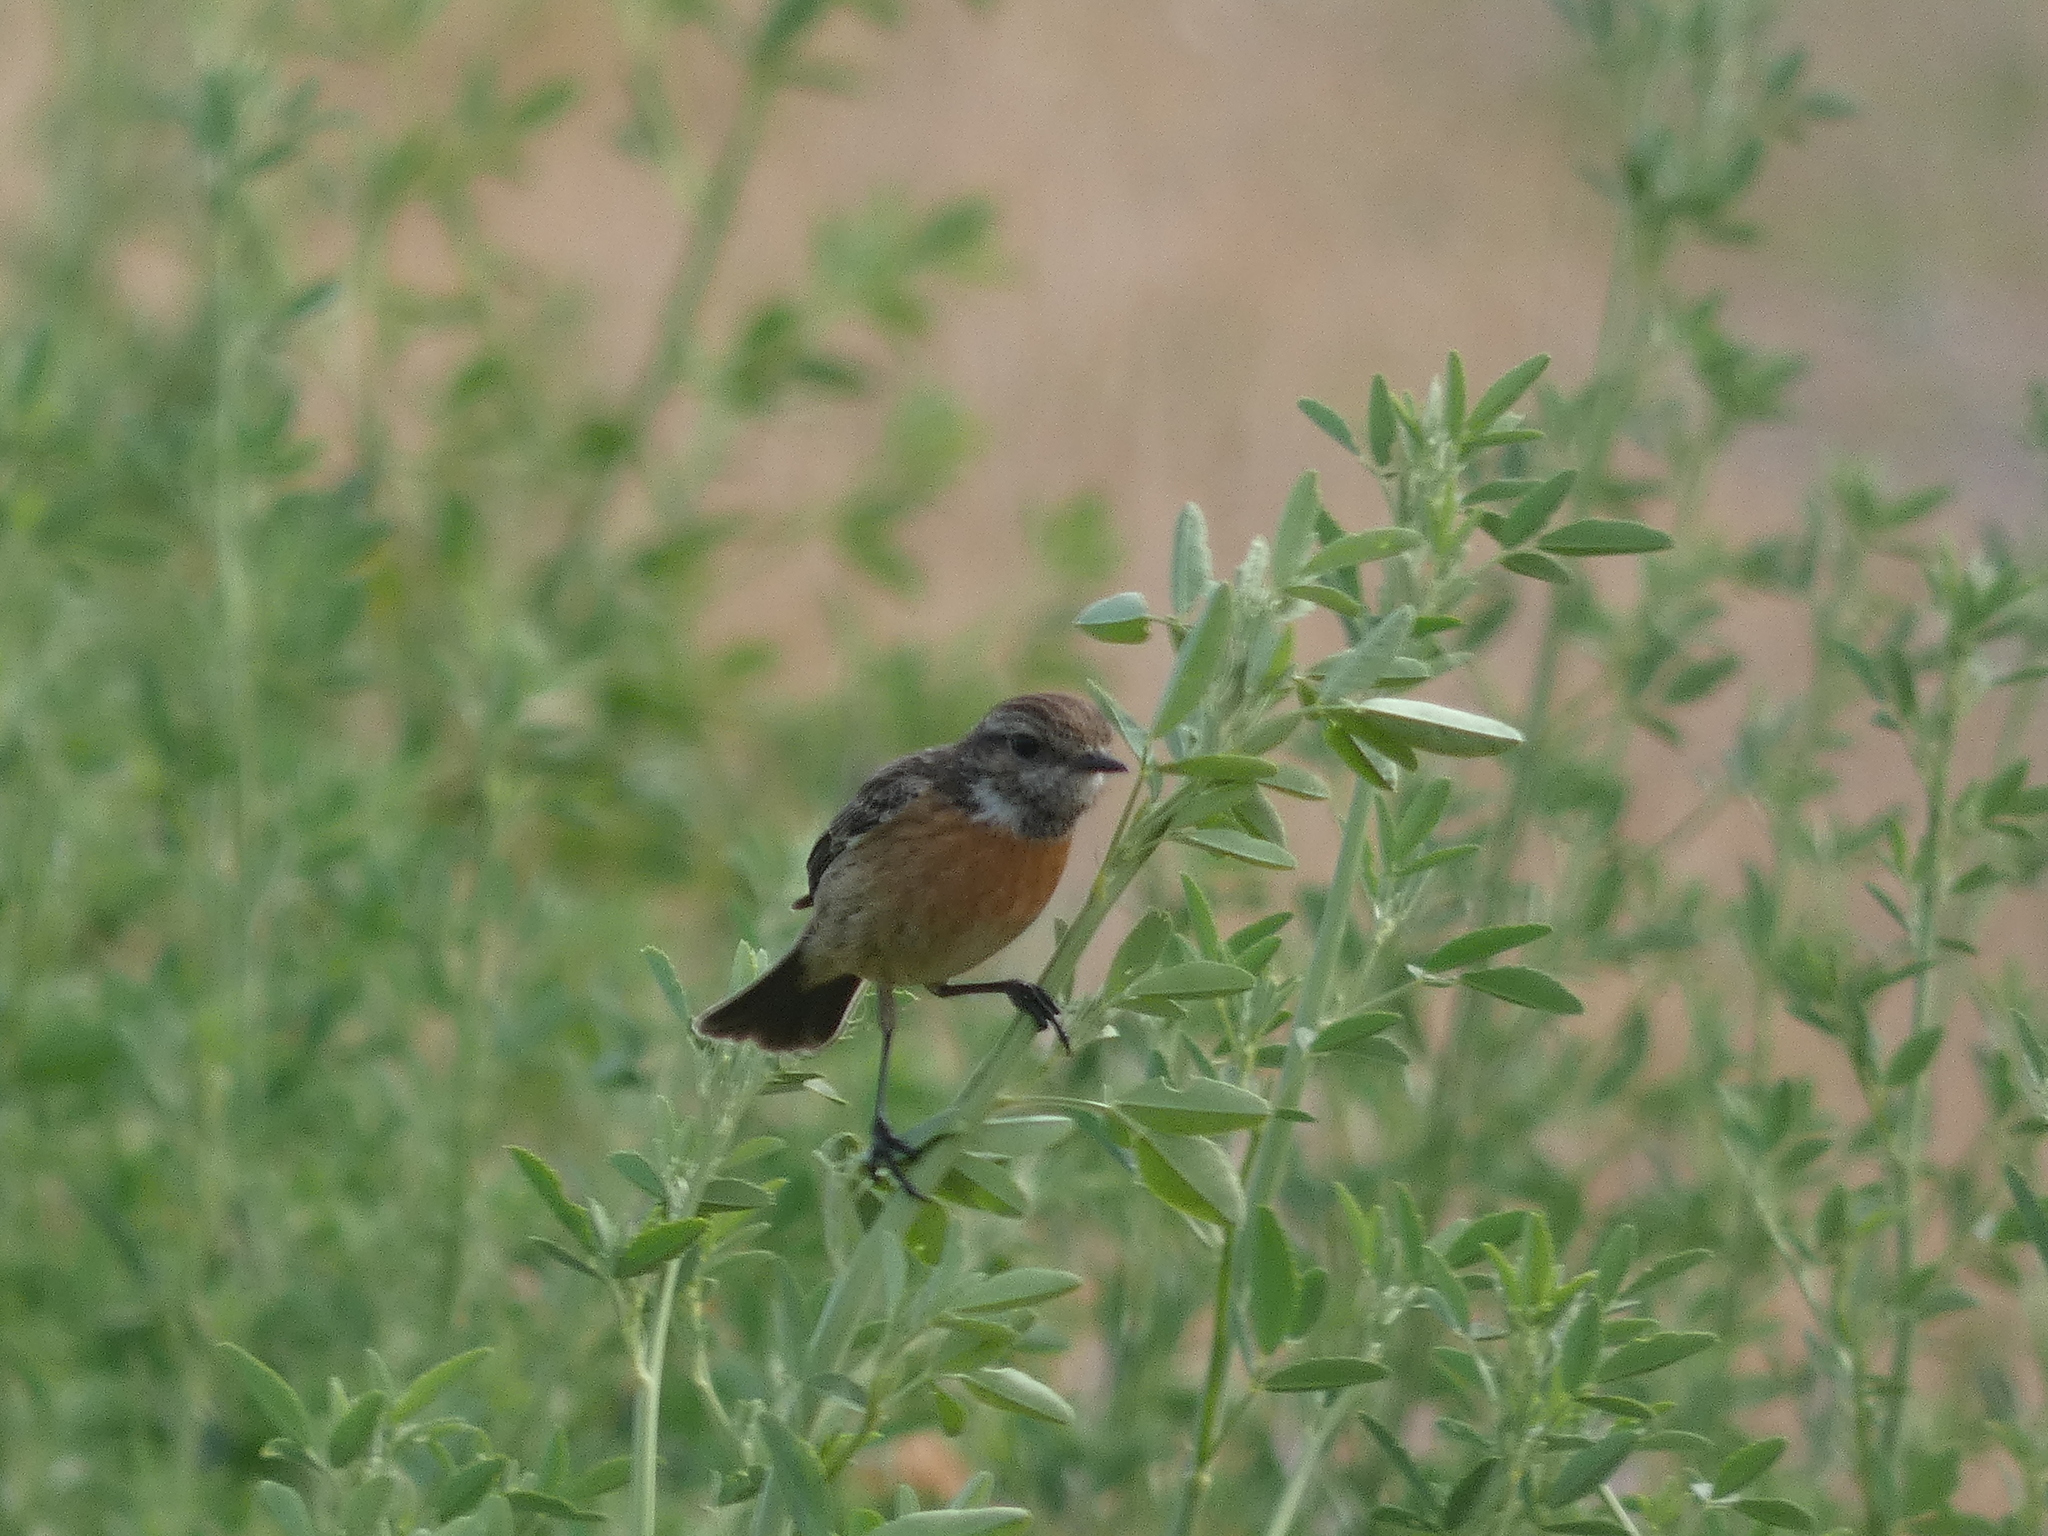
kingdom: Animalia
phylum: Chordata
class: Aves
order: Passeriformes
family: Muscicapidae
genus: Saxicola
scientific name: Saxicola rubicola
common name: European stonechat
